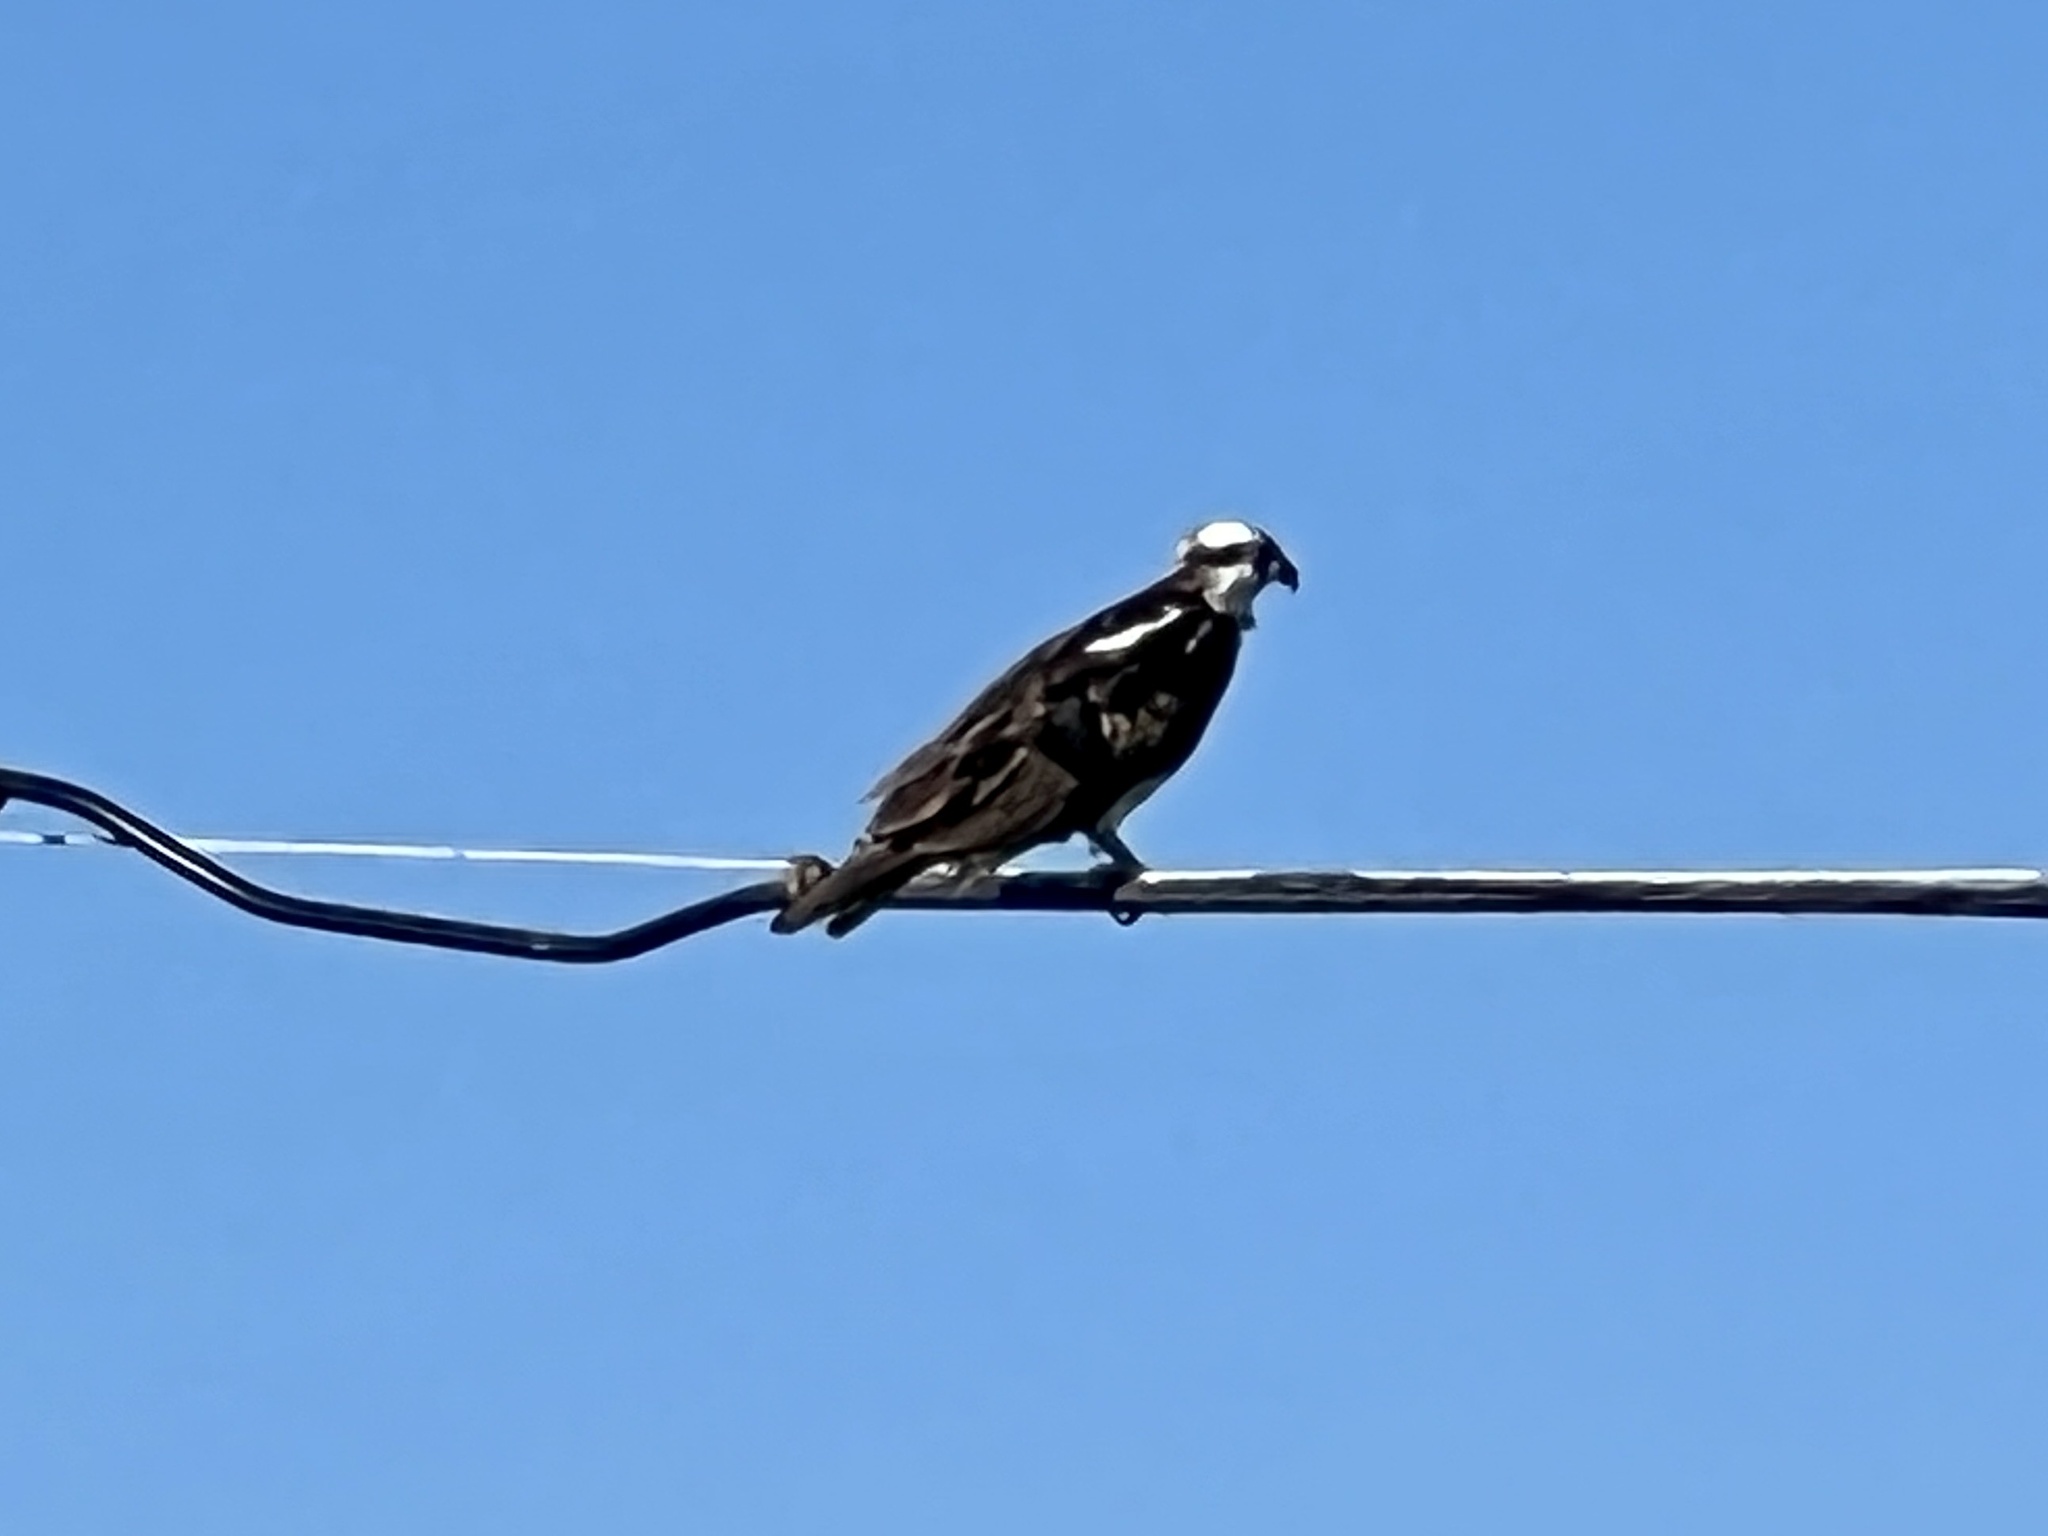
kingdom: Animalia
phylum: Chordata
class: Aves
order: Accipitriformes
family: Pandionidae
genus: Pandion
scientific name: Pandion haliaetus
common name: Osprey
